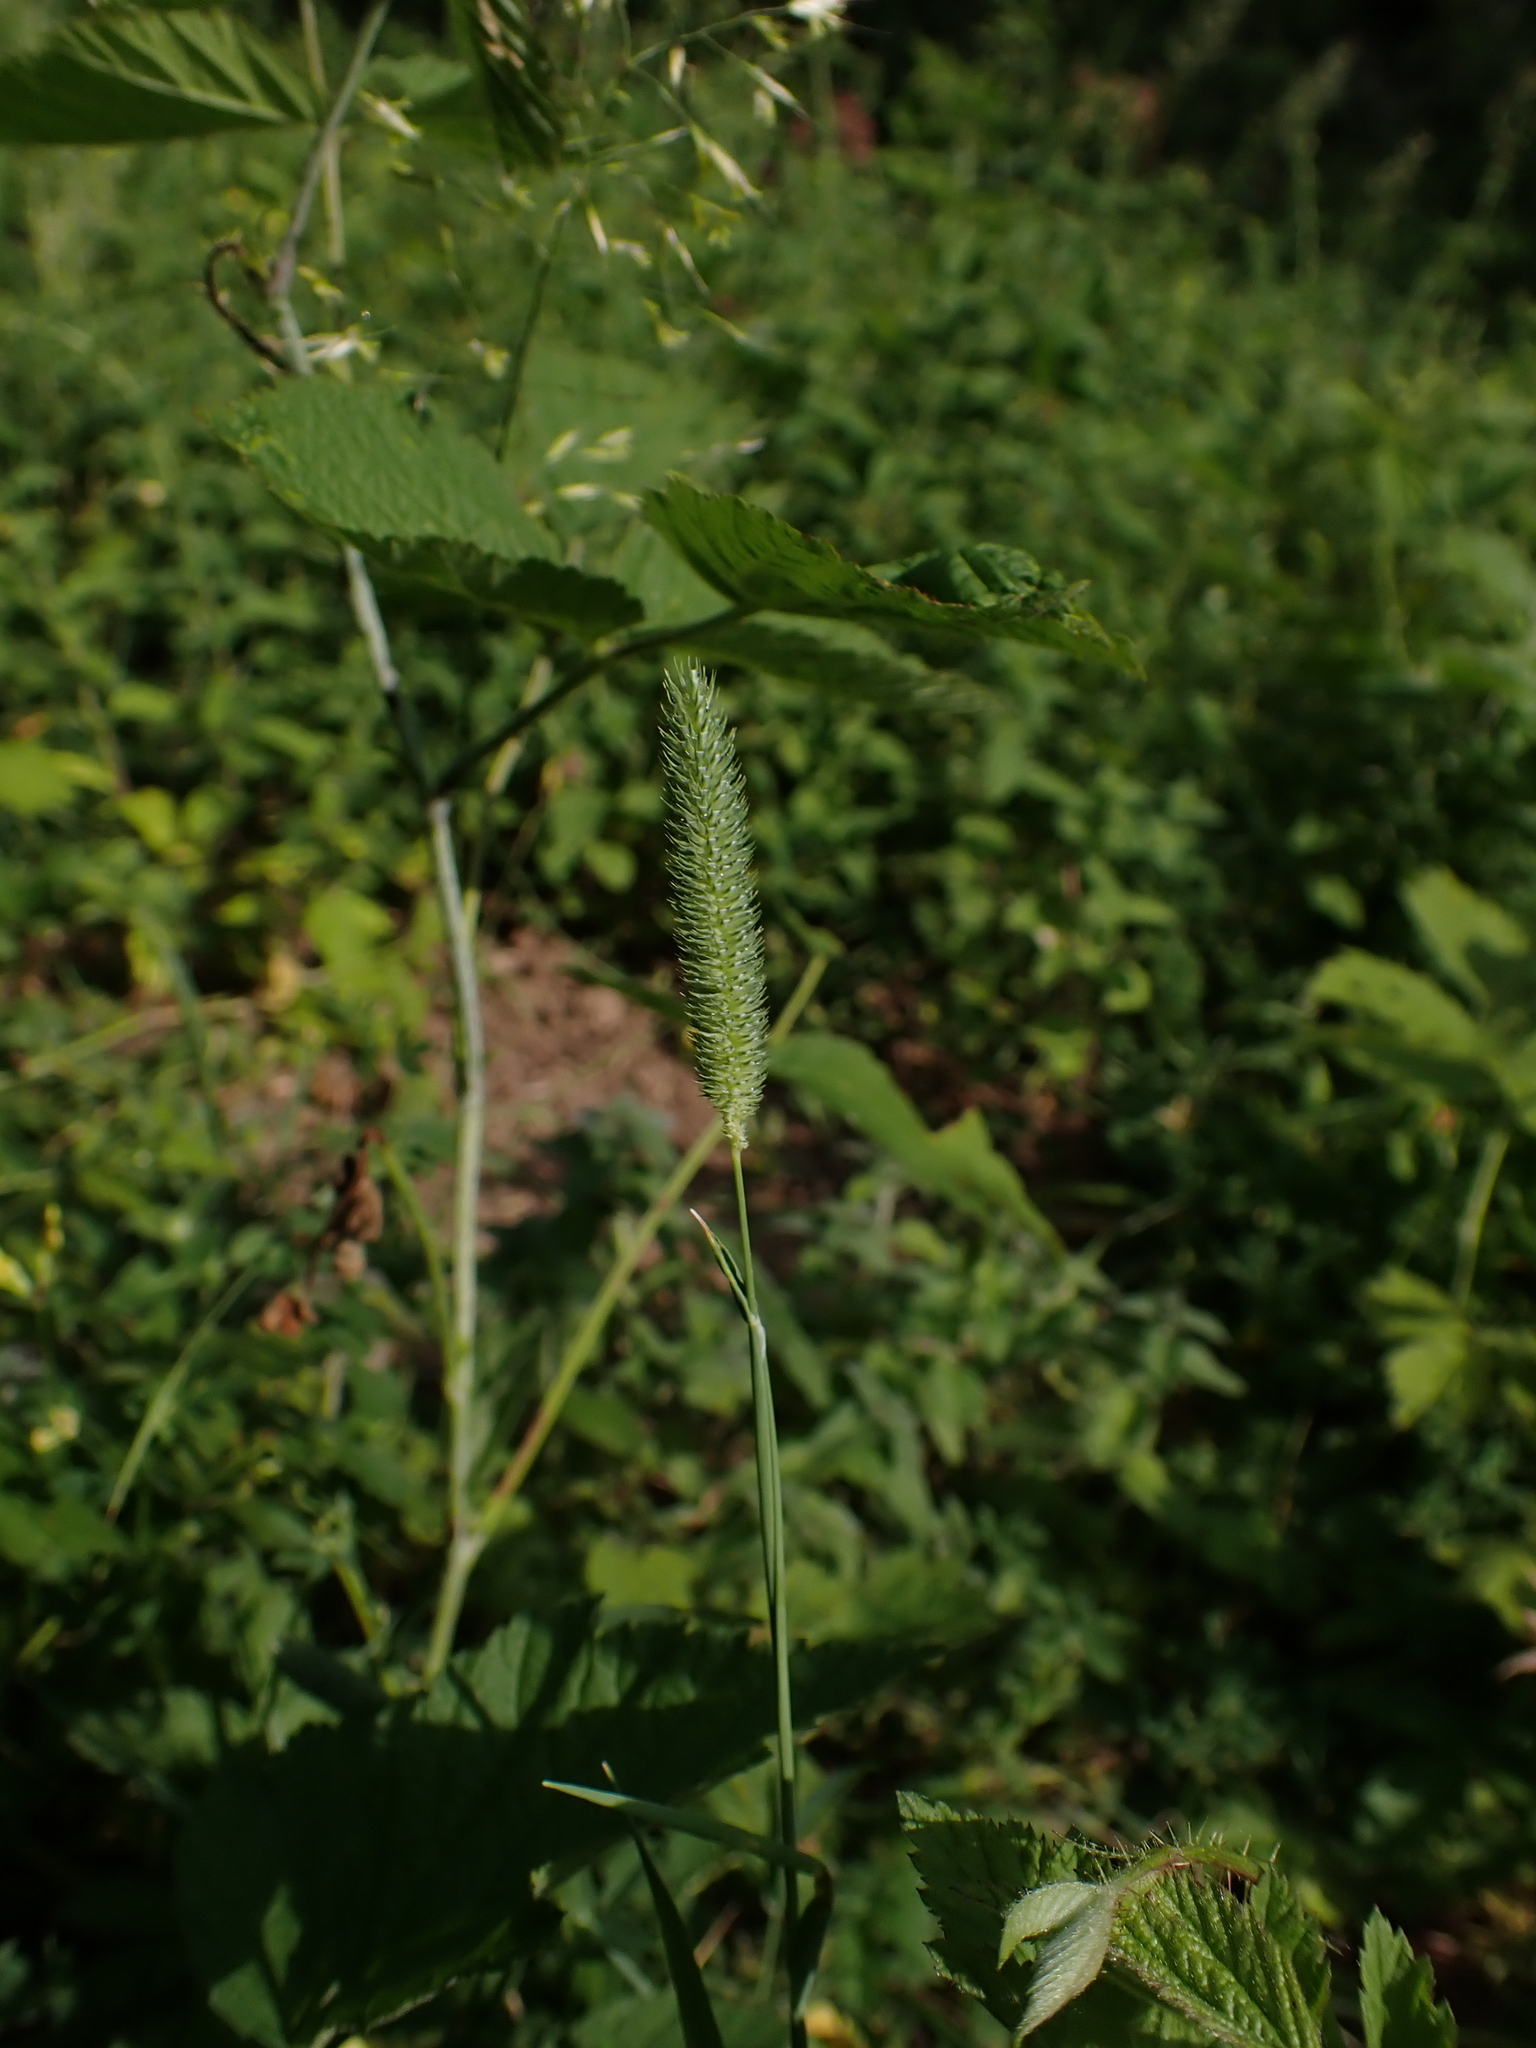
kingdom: Plantae
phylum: Tracheophyta
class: Liliopsida
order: Poales
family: Poaceae
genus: Phleum
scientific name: Phleum pratense
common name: Timothy grass
